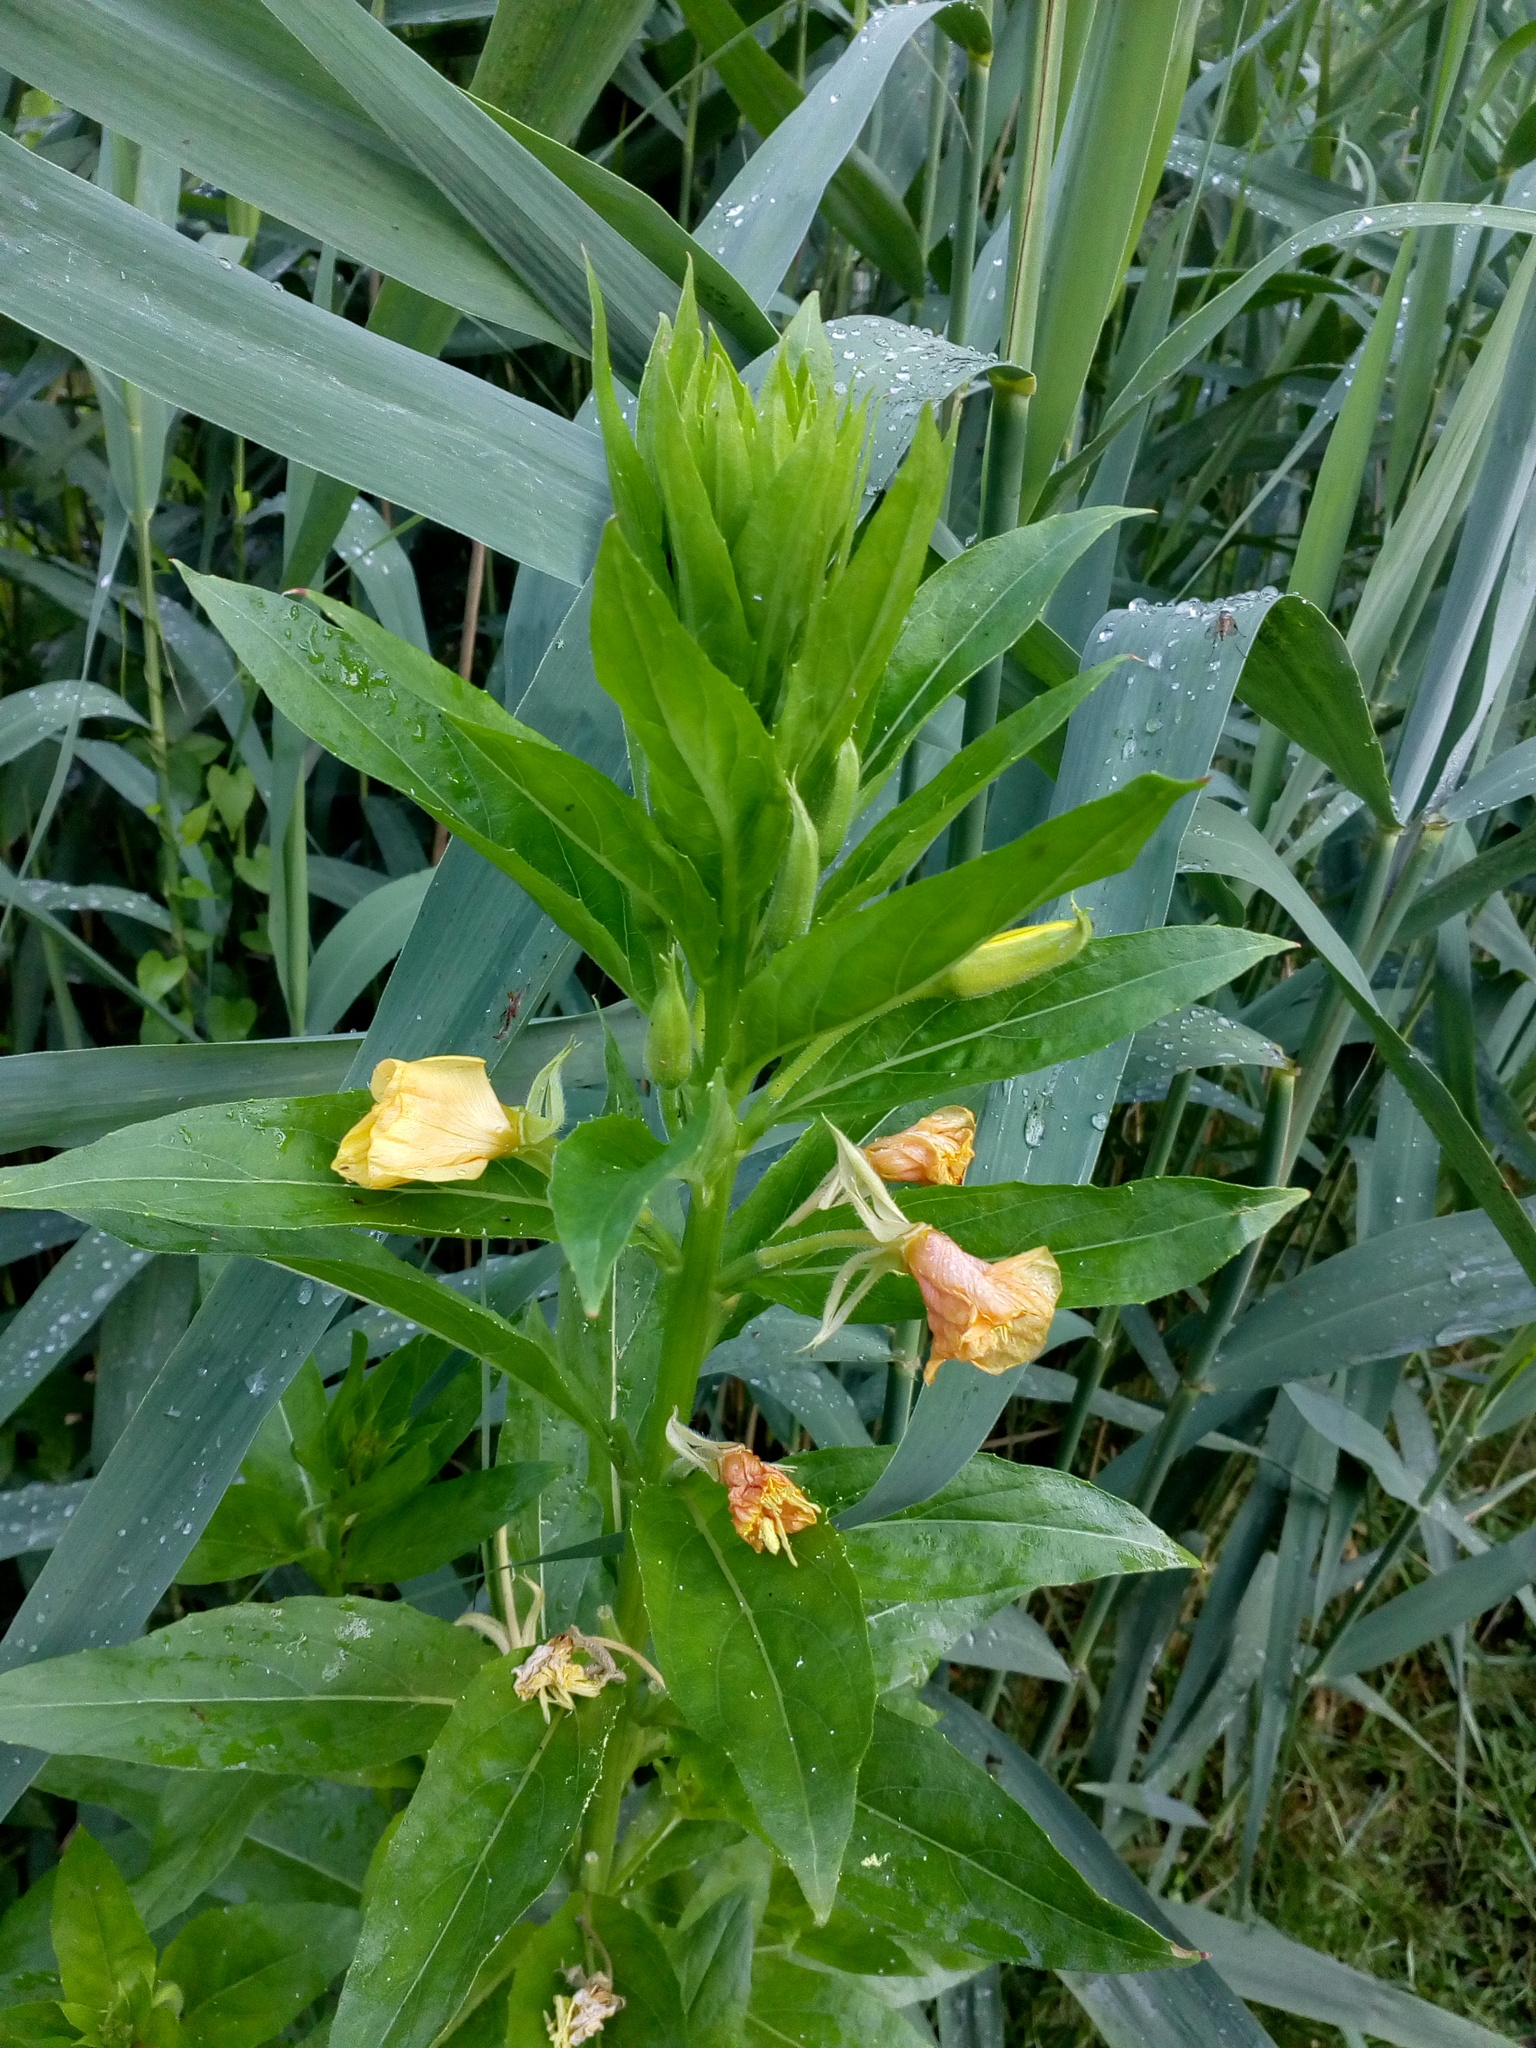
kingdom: Plantae
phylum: Tracheophyta
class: Magnoliopsida
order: Myrtales
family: Onagraceae
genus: Oenothera
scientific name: Oenothera biennis
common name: Common evening-primrose
